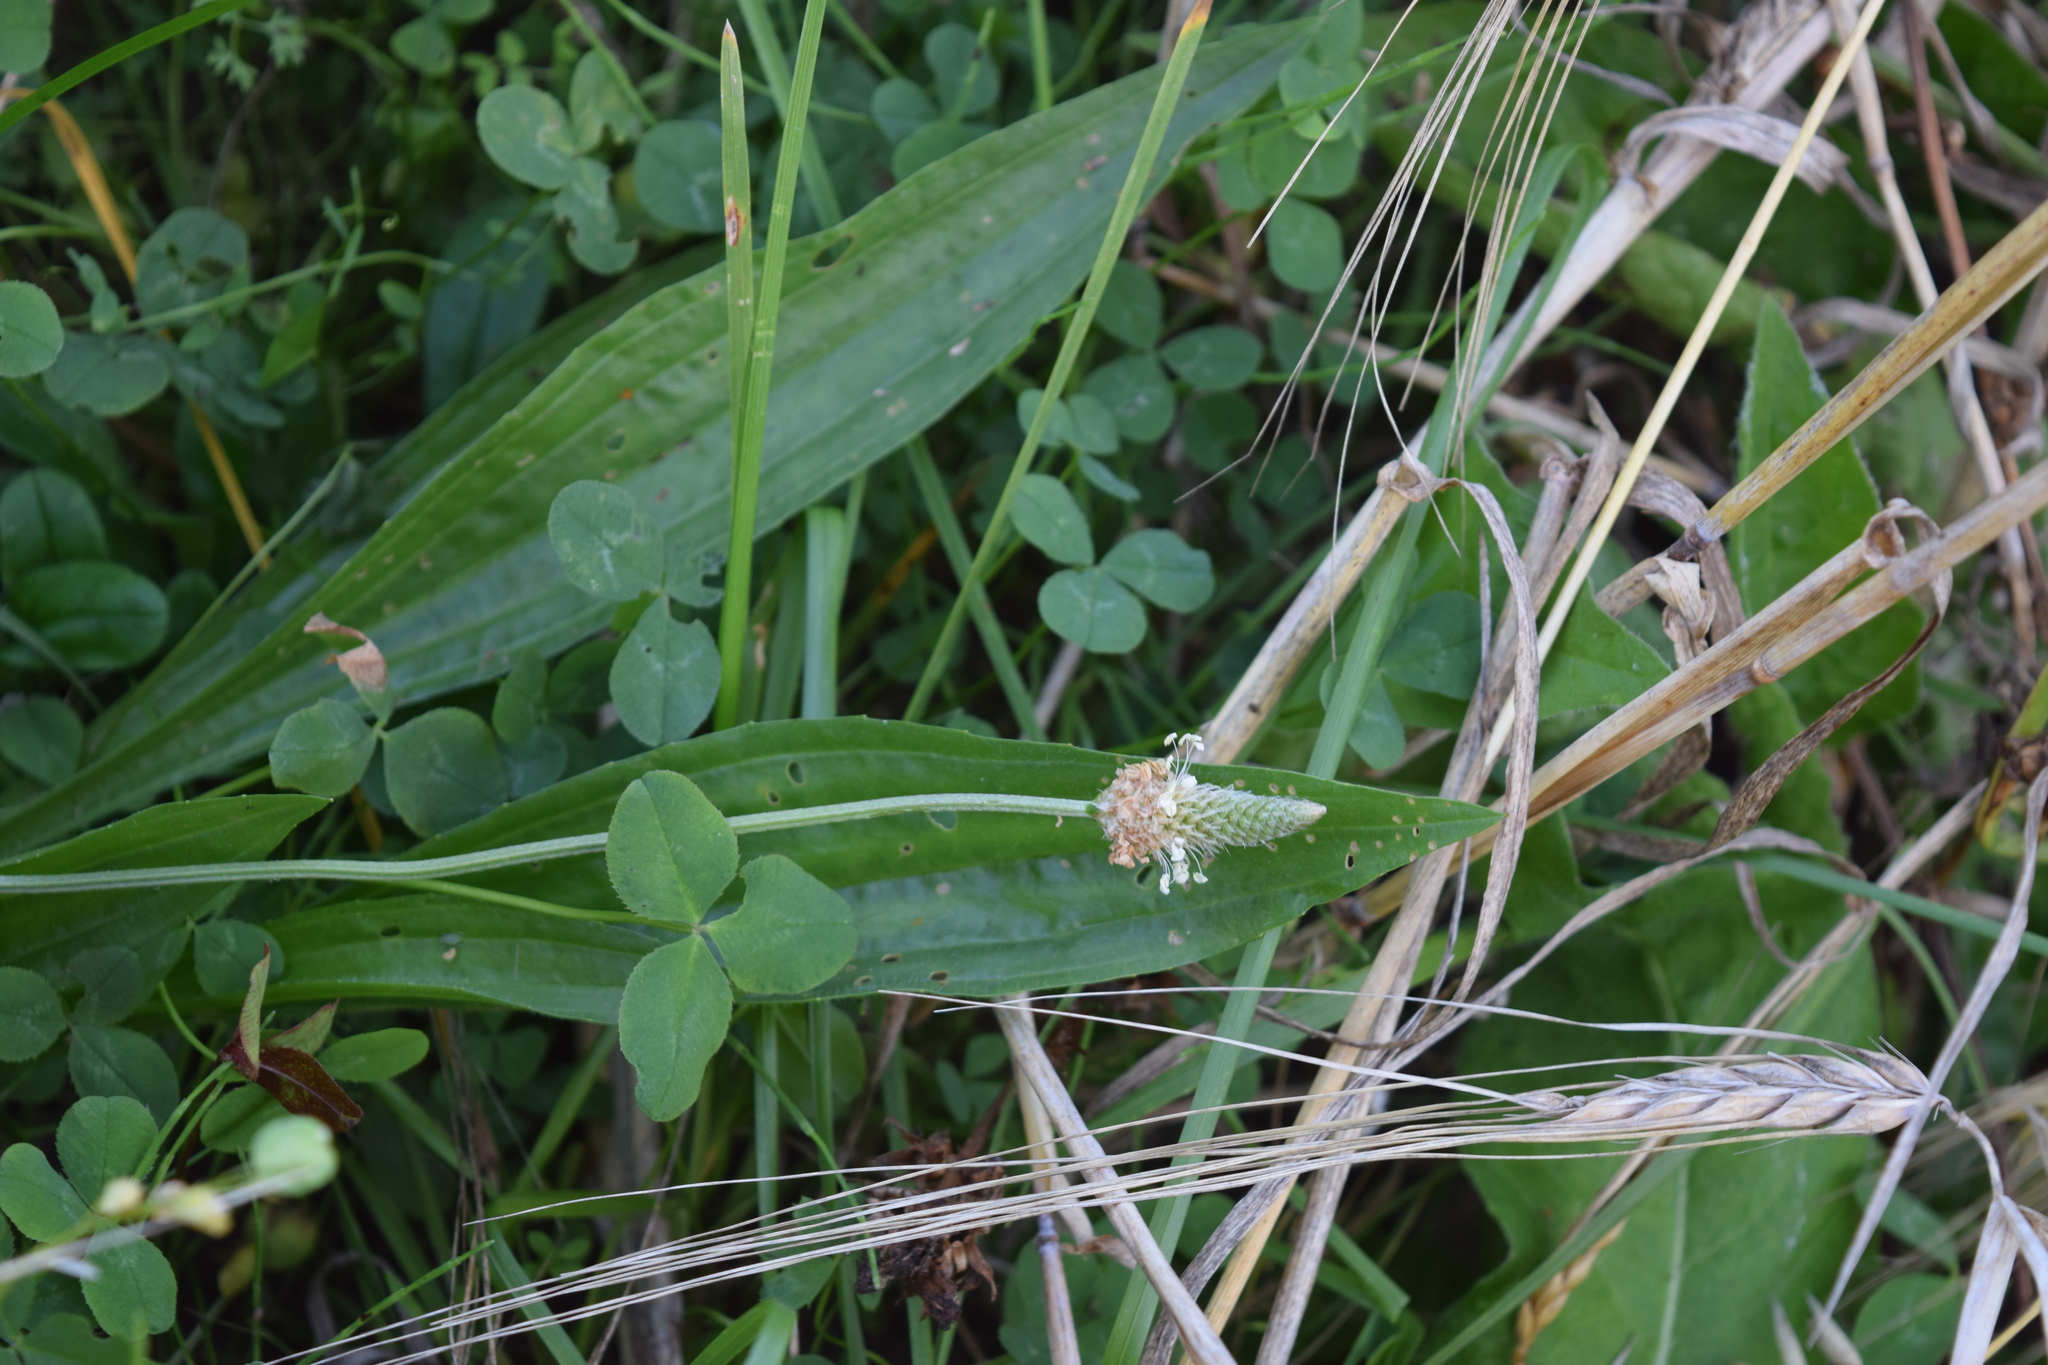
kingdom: Plantae
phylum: Tracheophyta
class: Magnoliopsida
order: Lamiales
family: Plantaginaceae
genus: Plantago
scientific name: Plantago lanceolata
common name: Ribwort plantain
